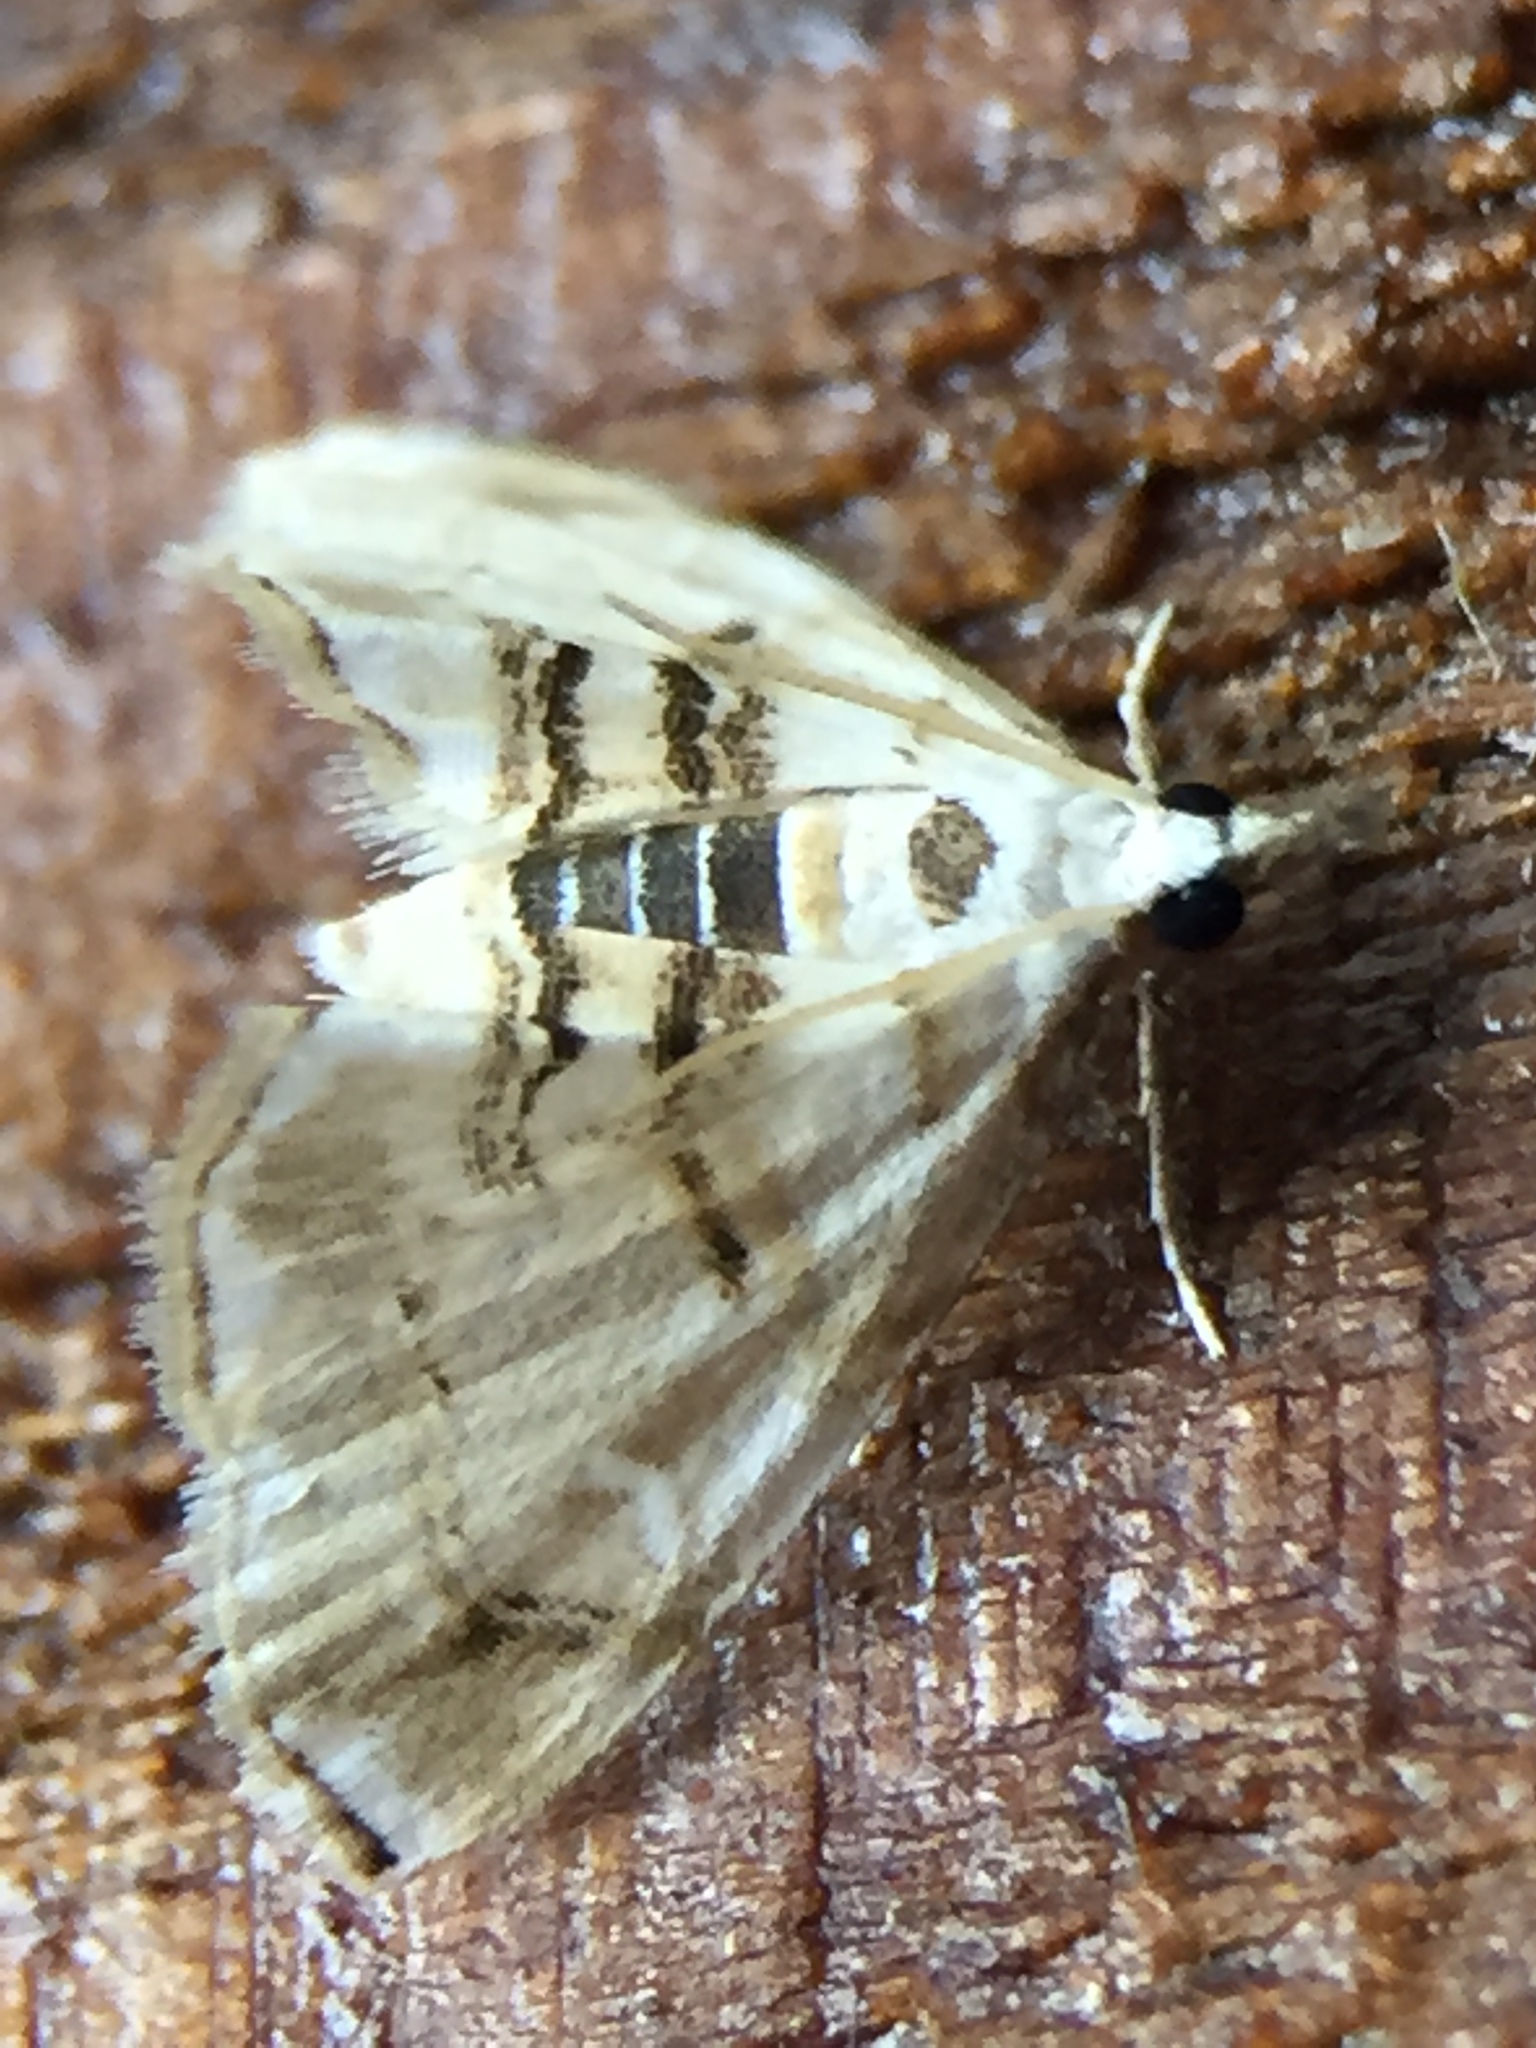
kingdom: Animalia
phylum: Arthropoda
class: Insecta
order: Lepidoptera
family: Crambidae
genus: Trichophysetis
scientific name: Trichophysetis
